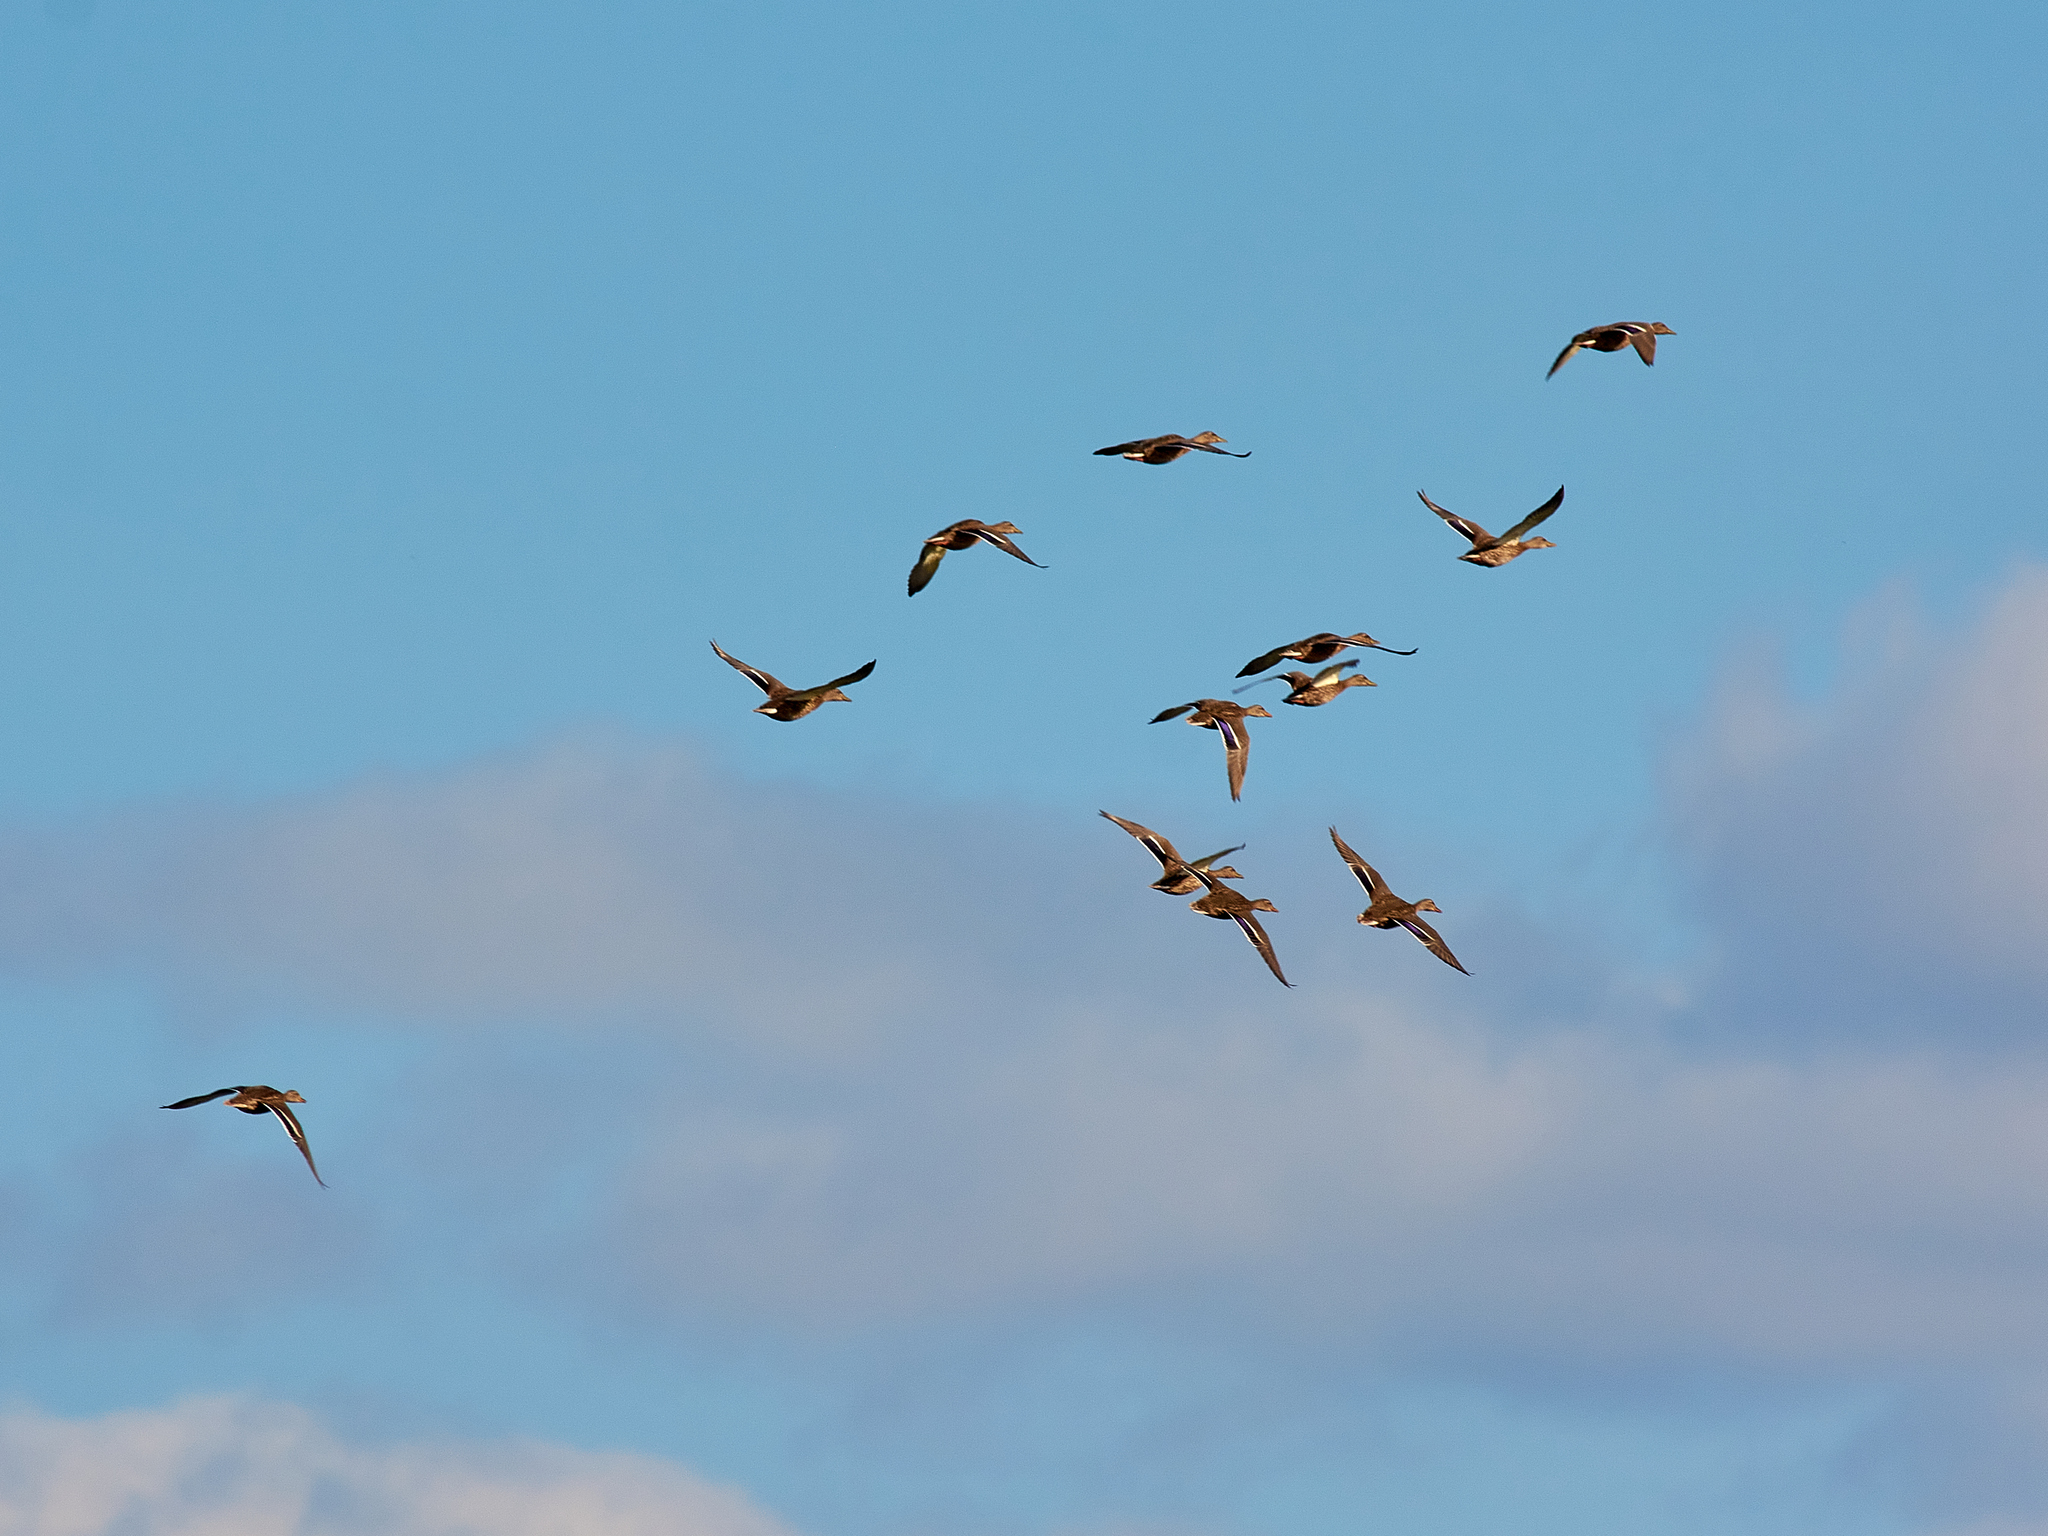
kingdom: Animalia
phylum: Chordata
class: Aves
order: Anseriformes
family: Anatidae
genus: Anas
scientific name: Anas platyrhynchos
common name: Mallard
